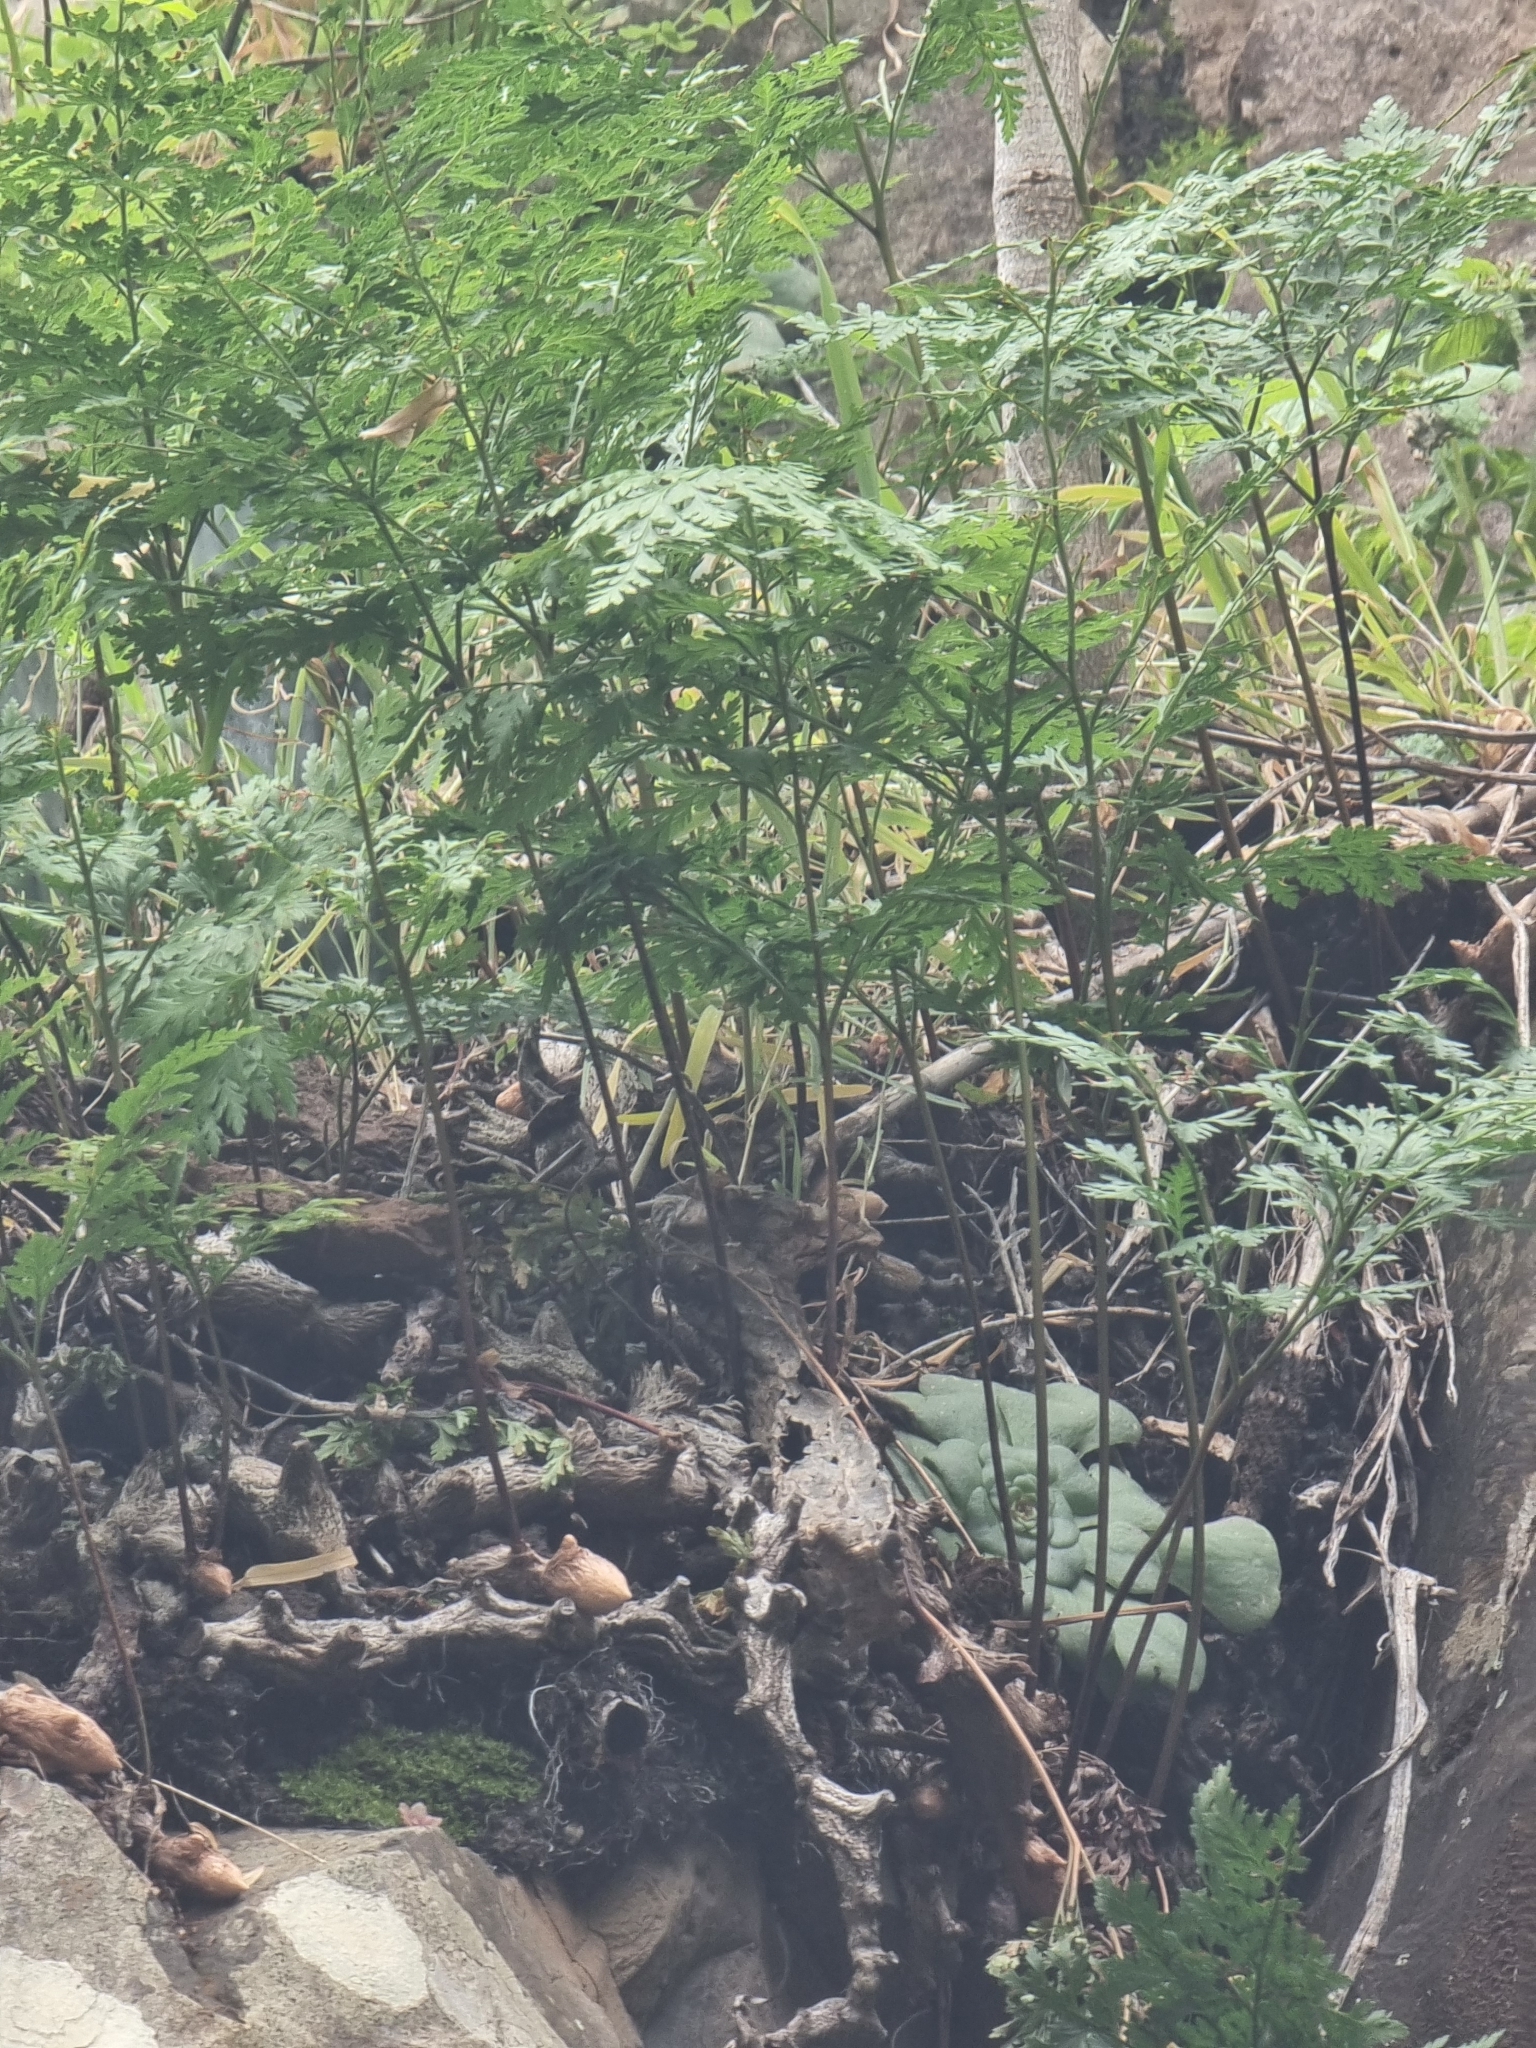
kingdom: Plantae
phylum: Tracheophyta
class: Polypodiopsida
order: Polypodiales
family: Davalliaceae
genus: Davallia
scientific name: Davallia canariensis
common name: Hare's-foot fern
